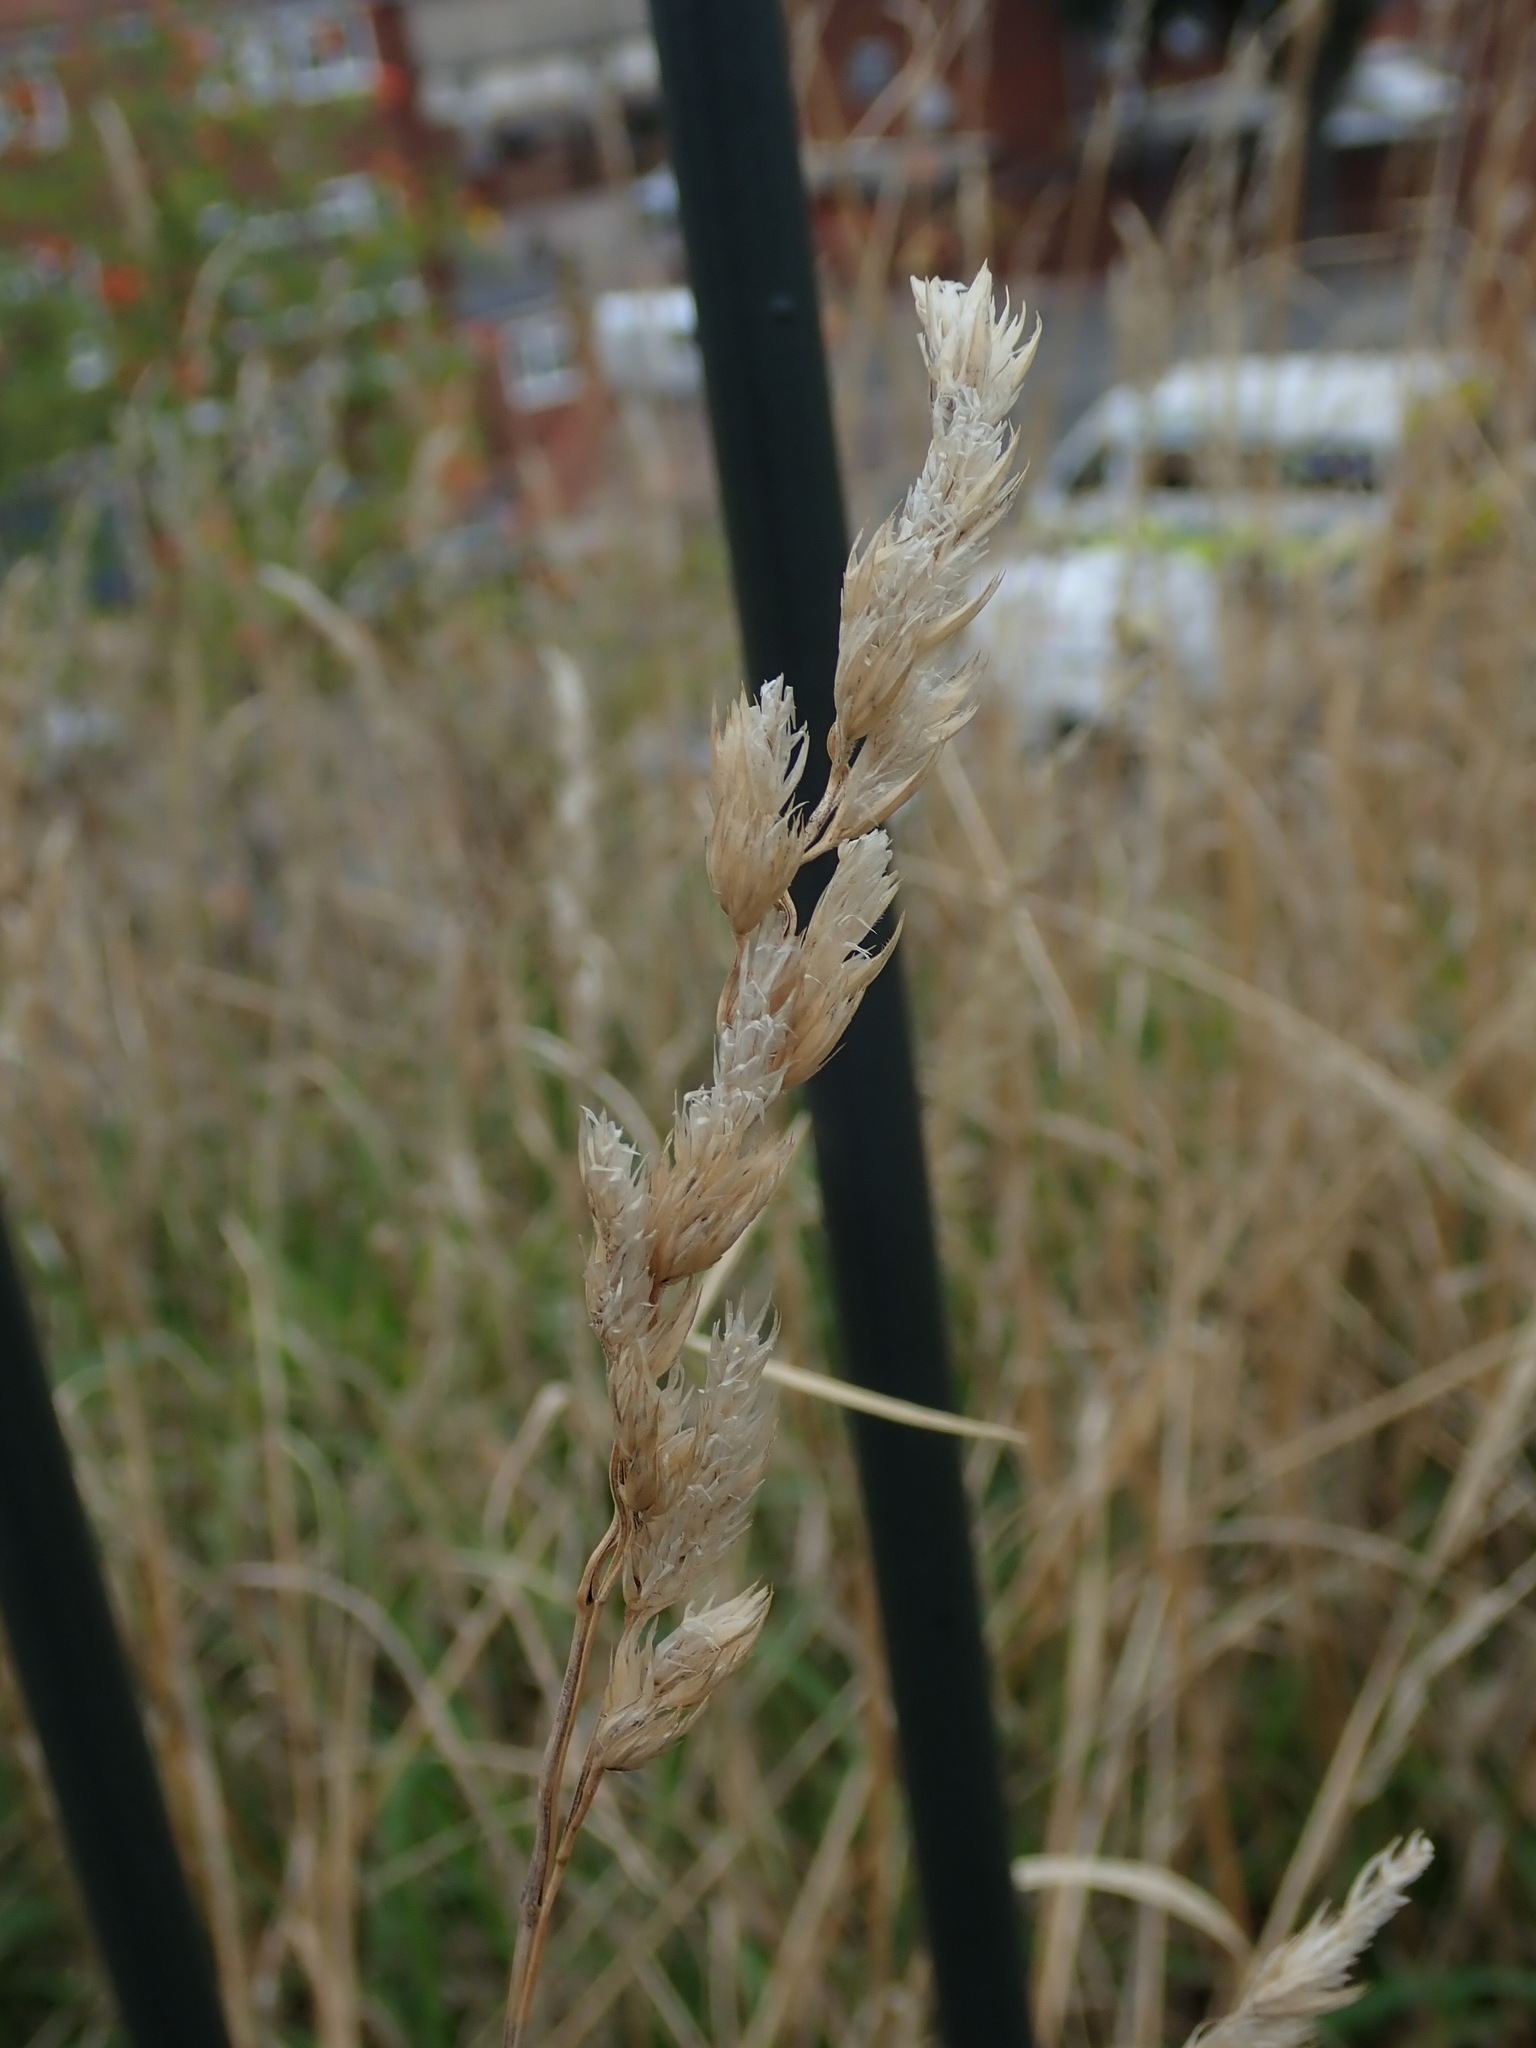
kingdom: Plantae
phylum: Tracheophyta
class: Liliopsida
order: Poales
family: Poaceae
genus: Dactylis
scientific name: Dactylis glomerata
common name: Orchardgrass
